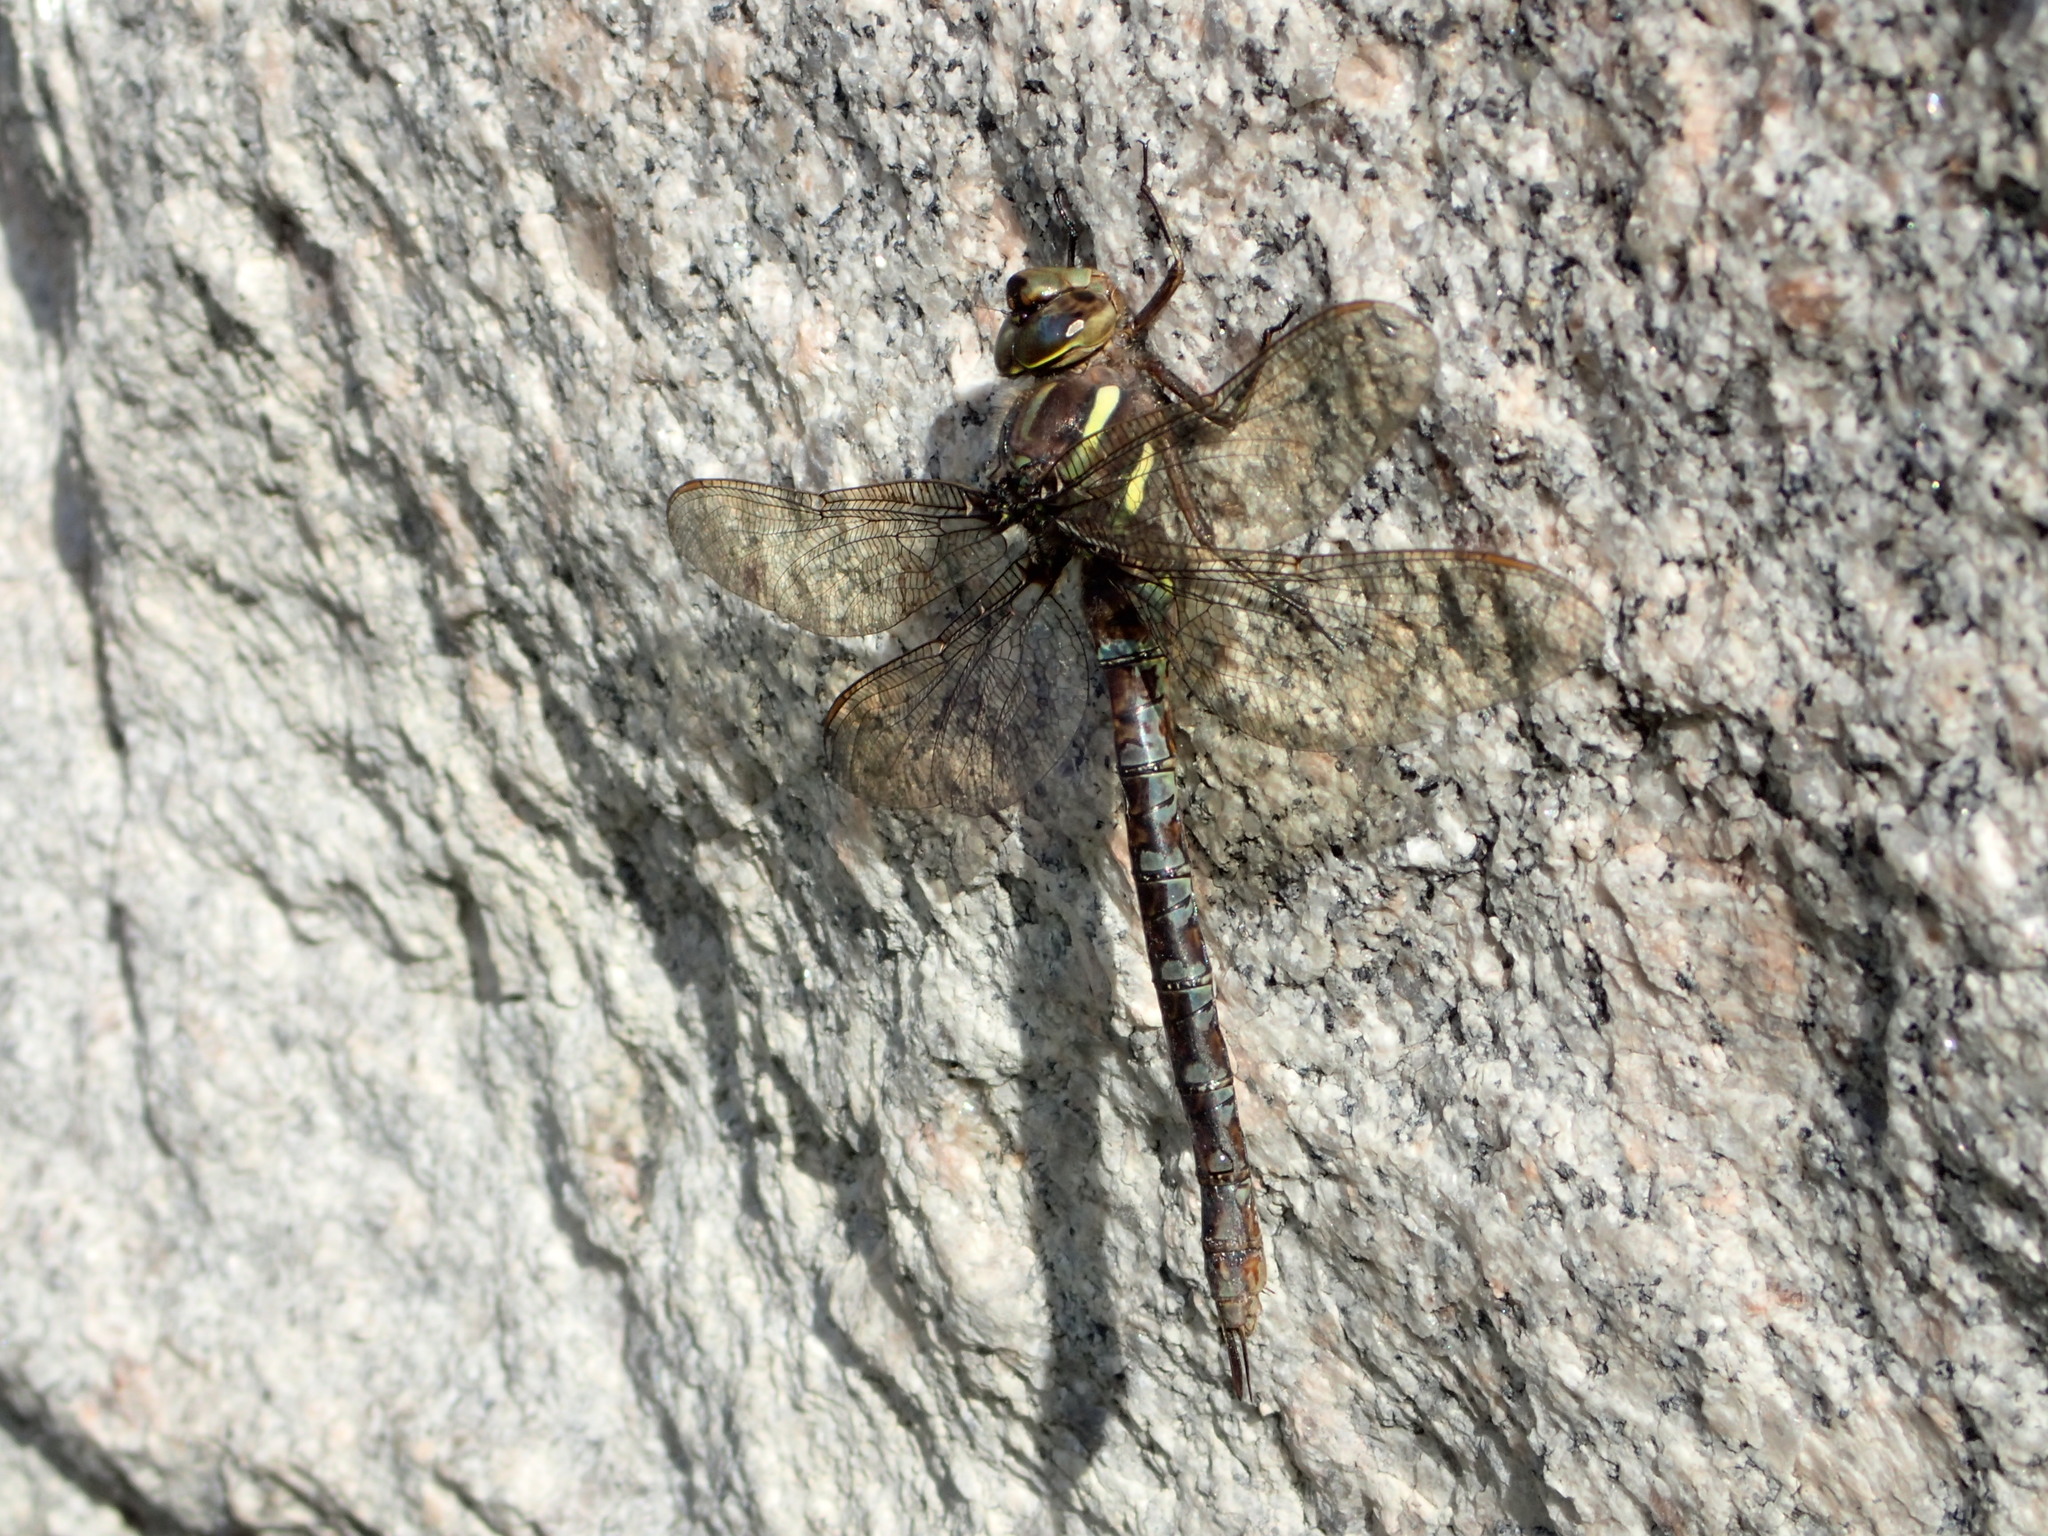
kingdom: Animalia
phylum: Arthropoda
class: Insecta
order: Odonata
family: Aeshnidae
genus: Basiaeschna
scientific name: Basiaeschna janata
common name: Springtime darner
